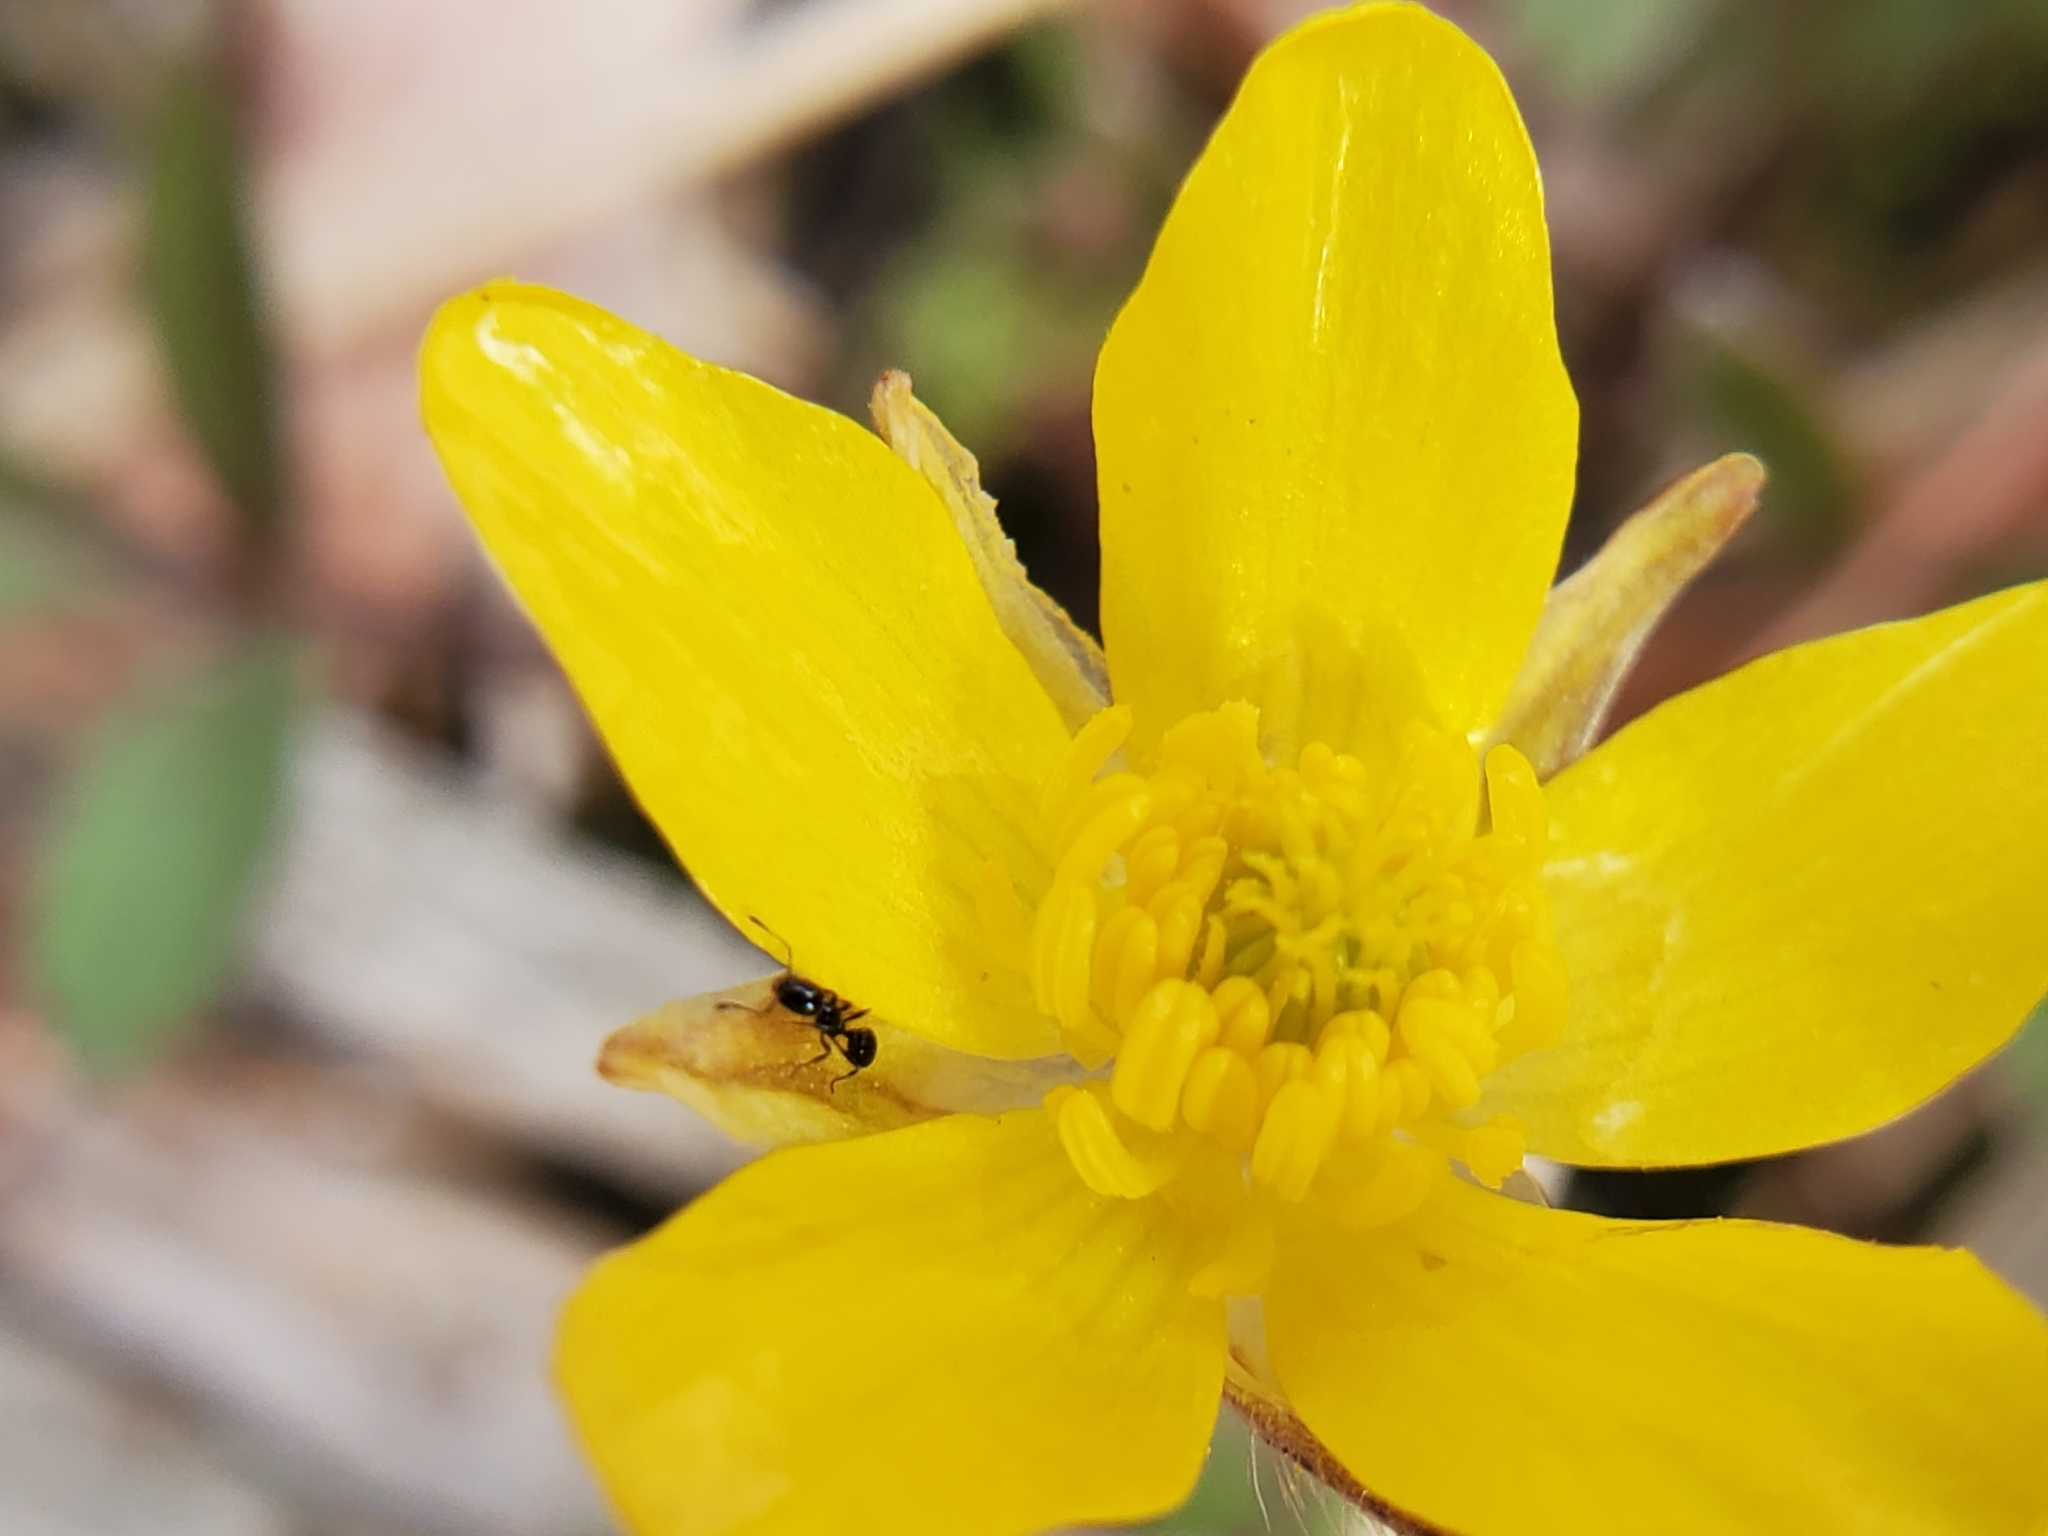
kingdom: Plantae
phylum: Tracheophyta
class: Magnoliopsida
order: Ranunculales
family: Ranunculaceae
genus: Ranunculus
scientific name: Ranunculus fascicularis
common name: Early buttercup
